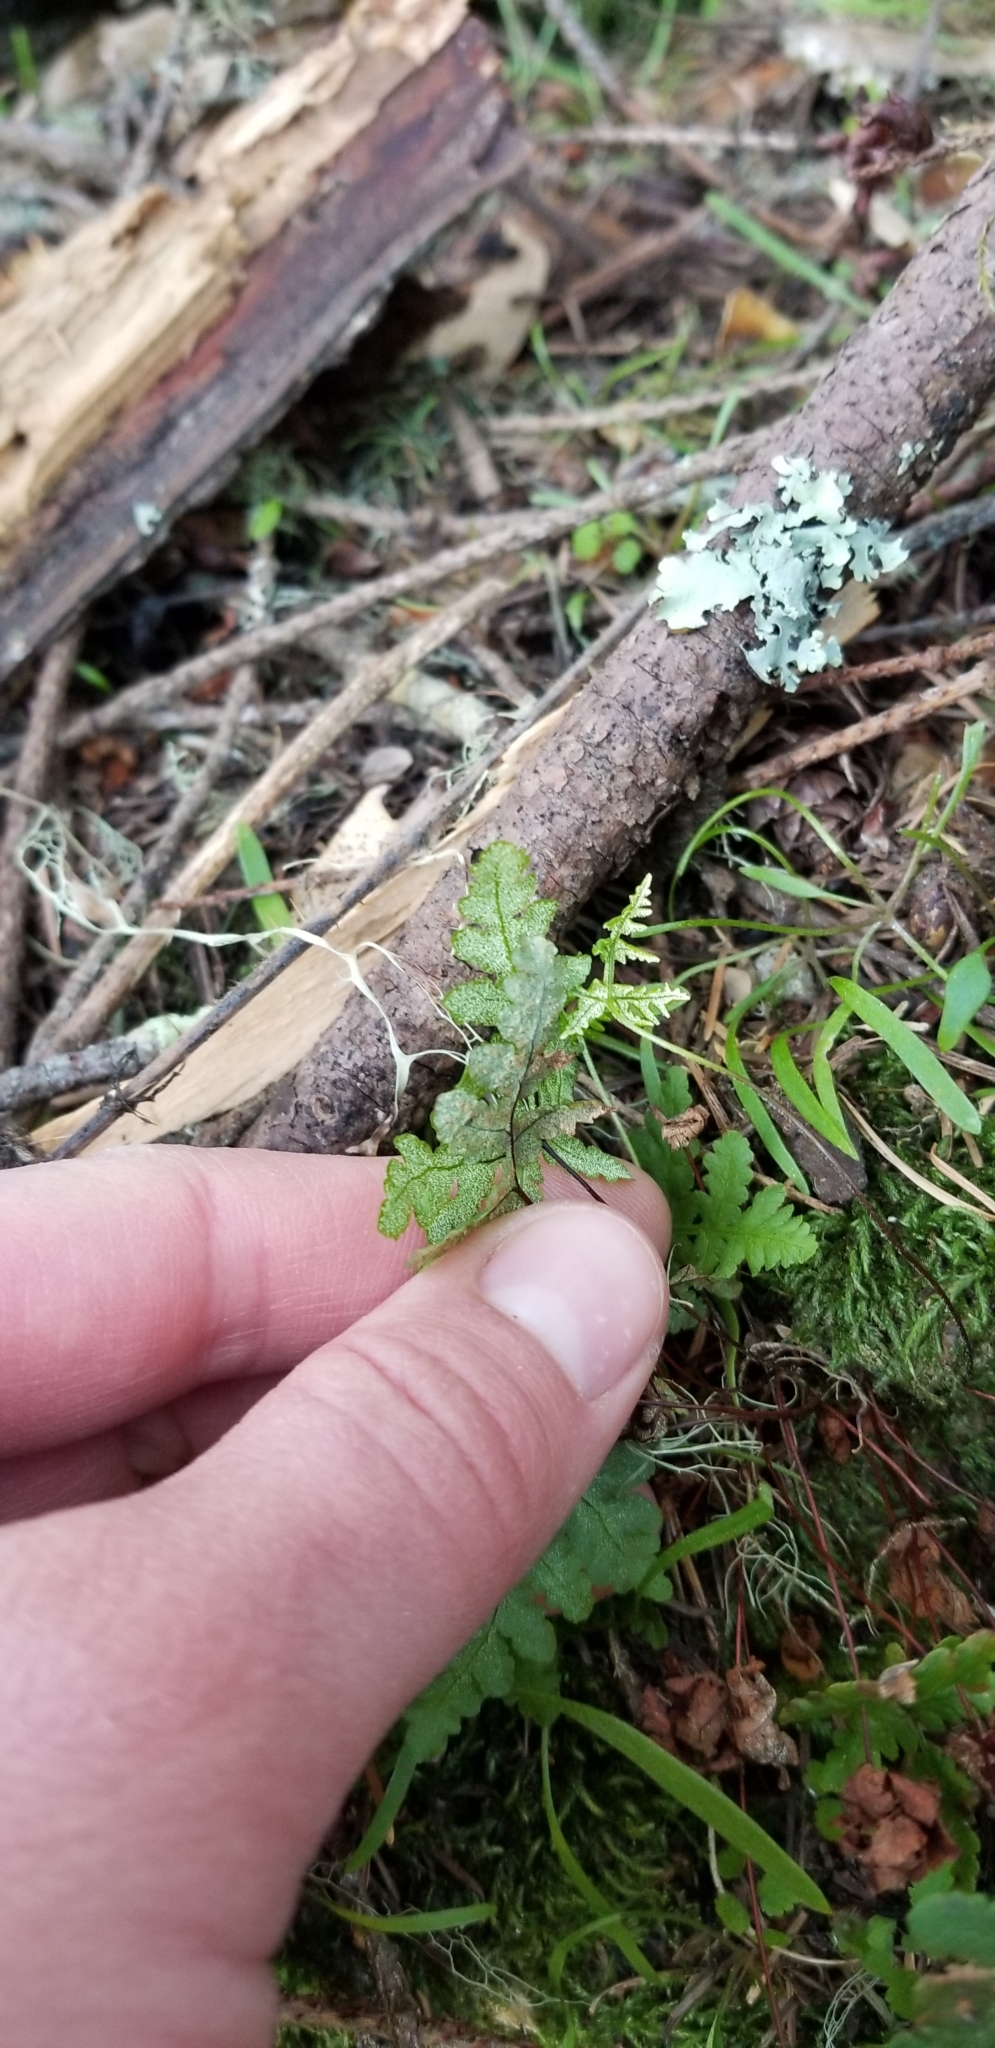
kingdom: Plantae
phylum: Tracheophyta
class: Polypodiopsida
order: Polypodiales
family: Pteridaceae
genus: Pentagramma
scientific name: Pentagramma triangularis
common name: Gold fern
